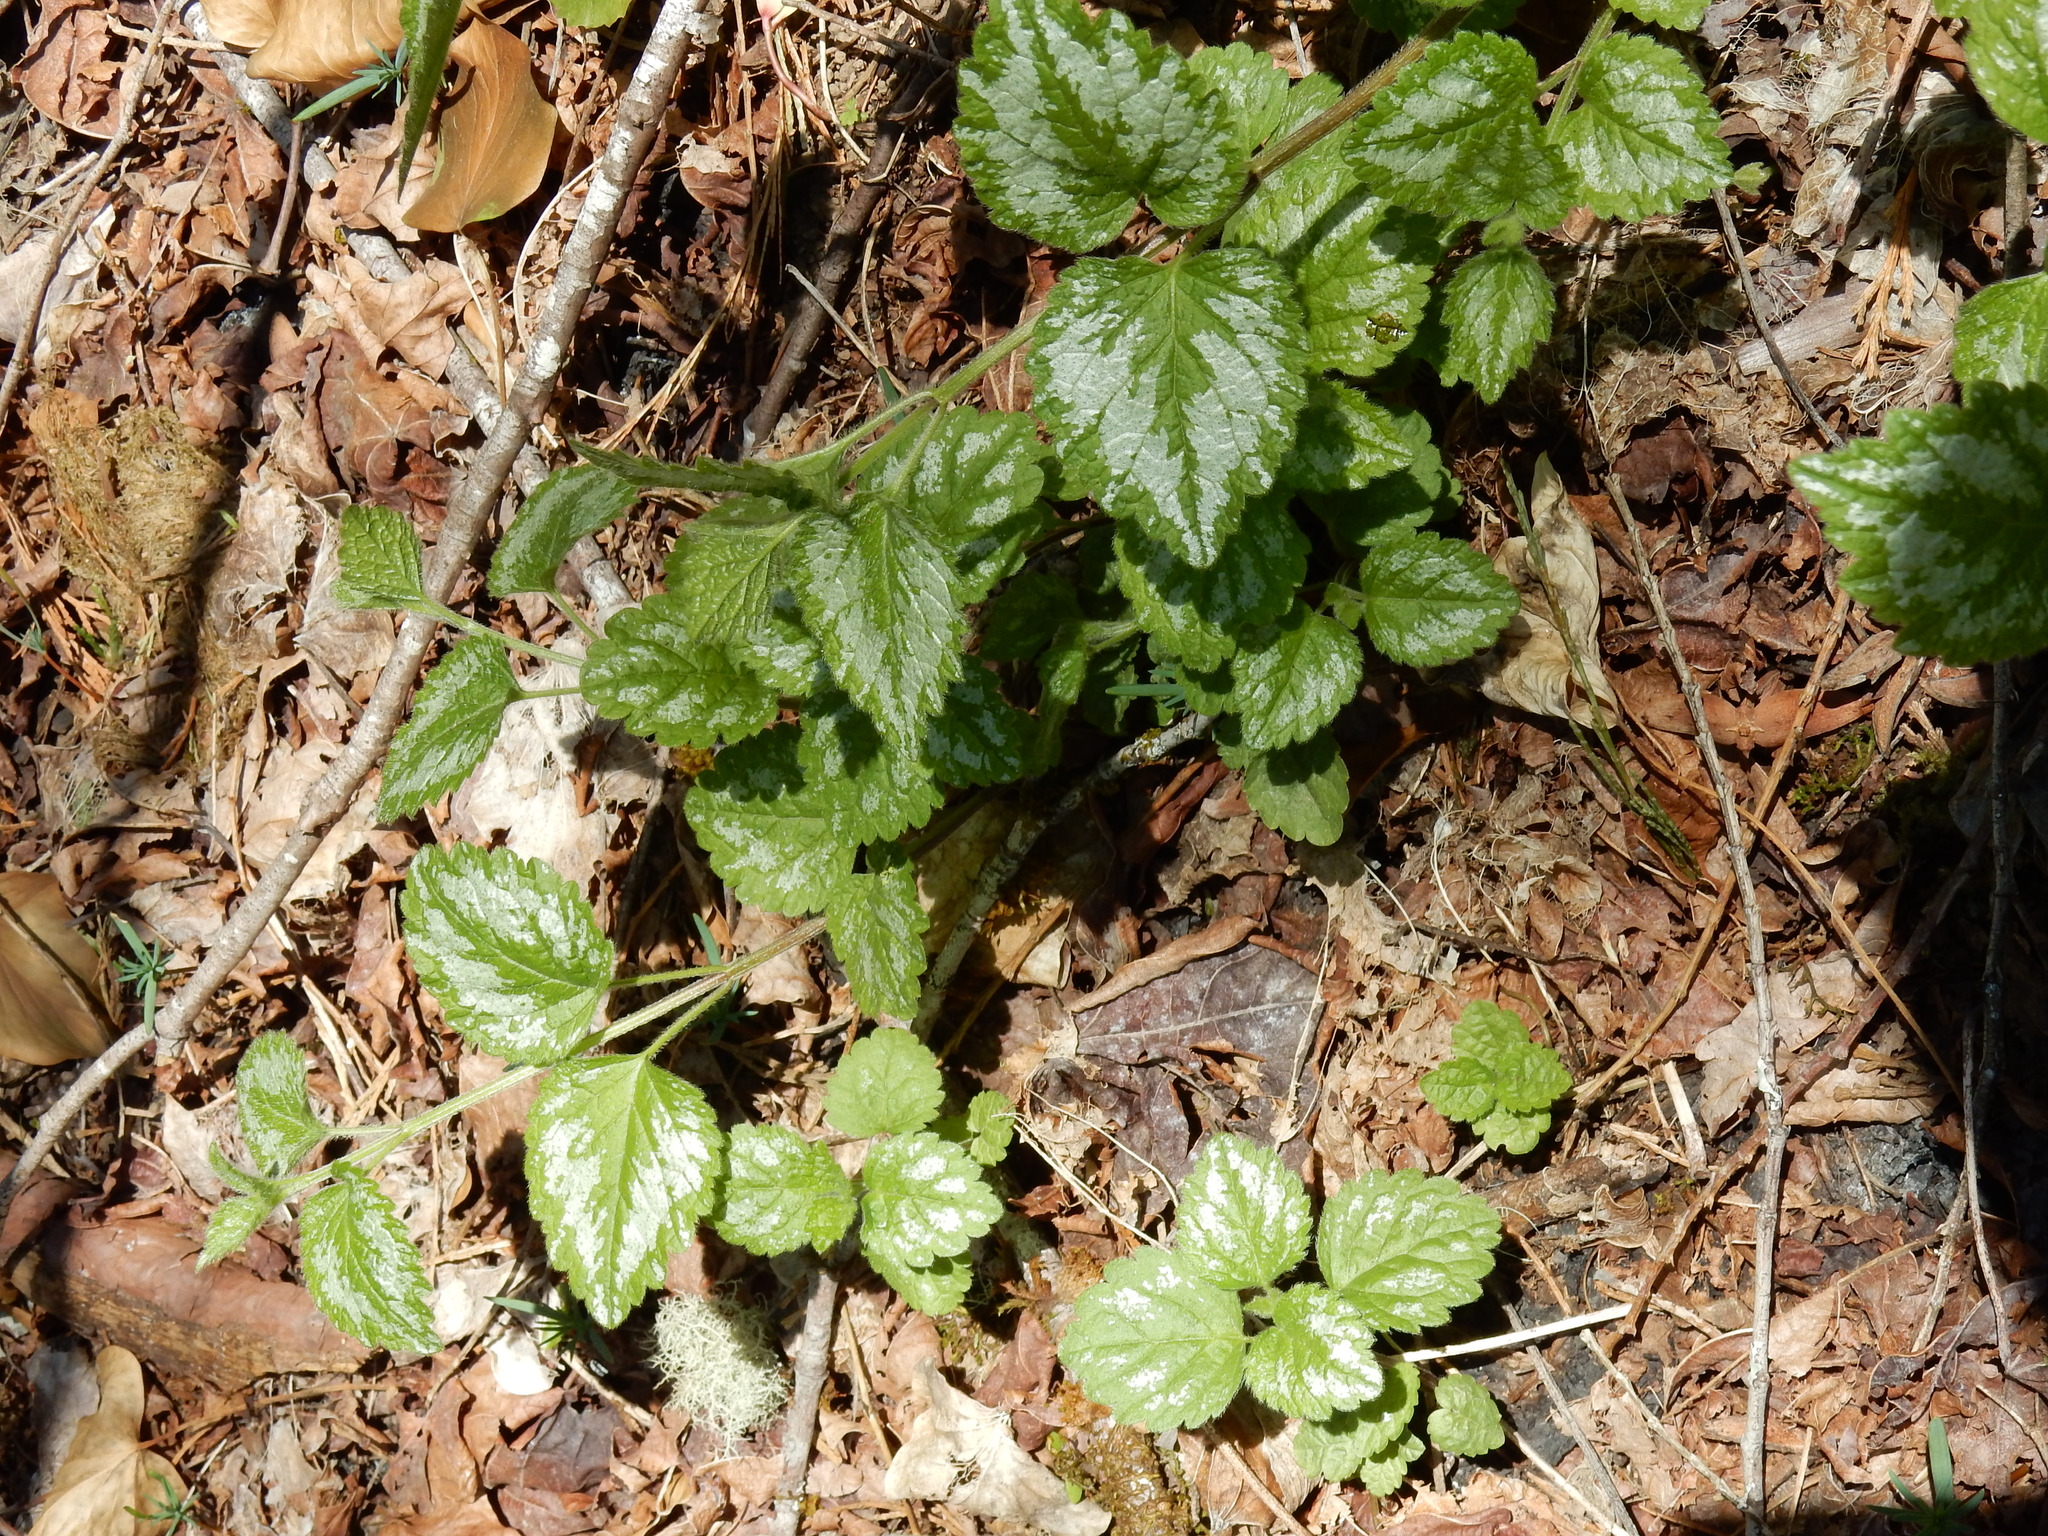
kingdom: Plantae
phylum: Tracheophyta
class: Magnoliopsida
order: Lamiales
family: Lamiaceae
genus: Lamium
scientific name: Lamium galeobdolon
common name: Yellow archangel
